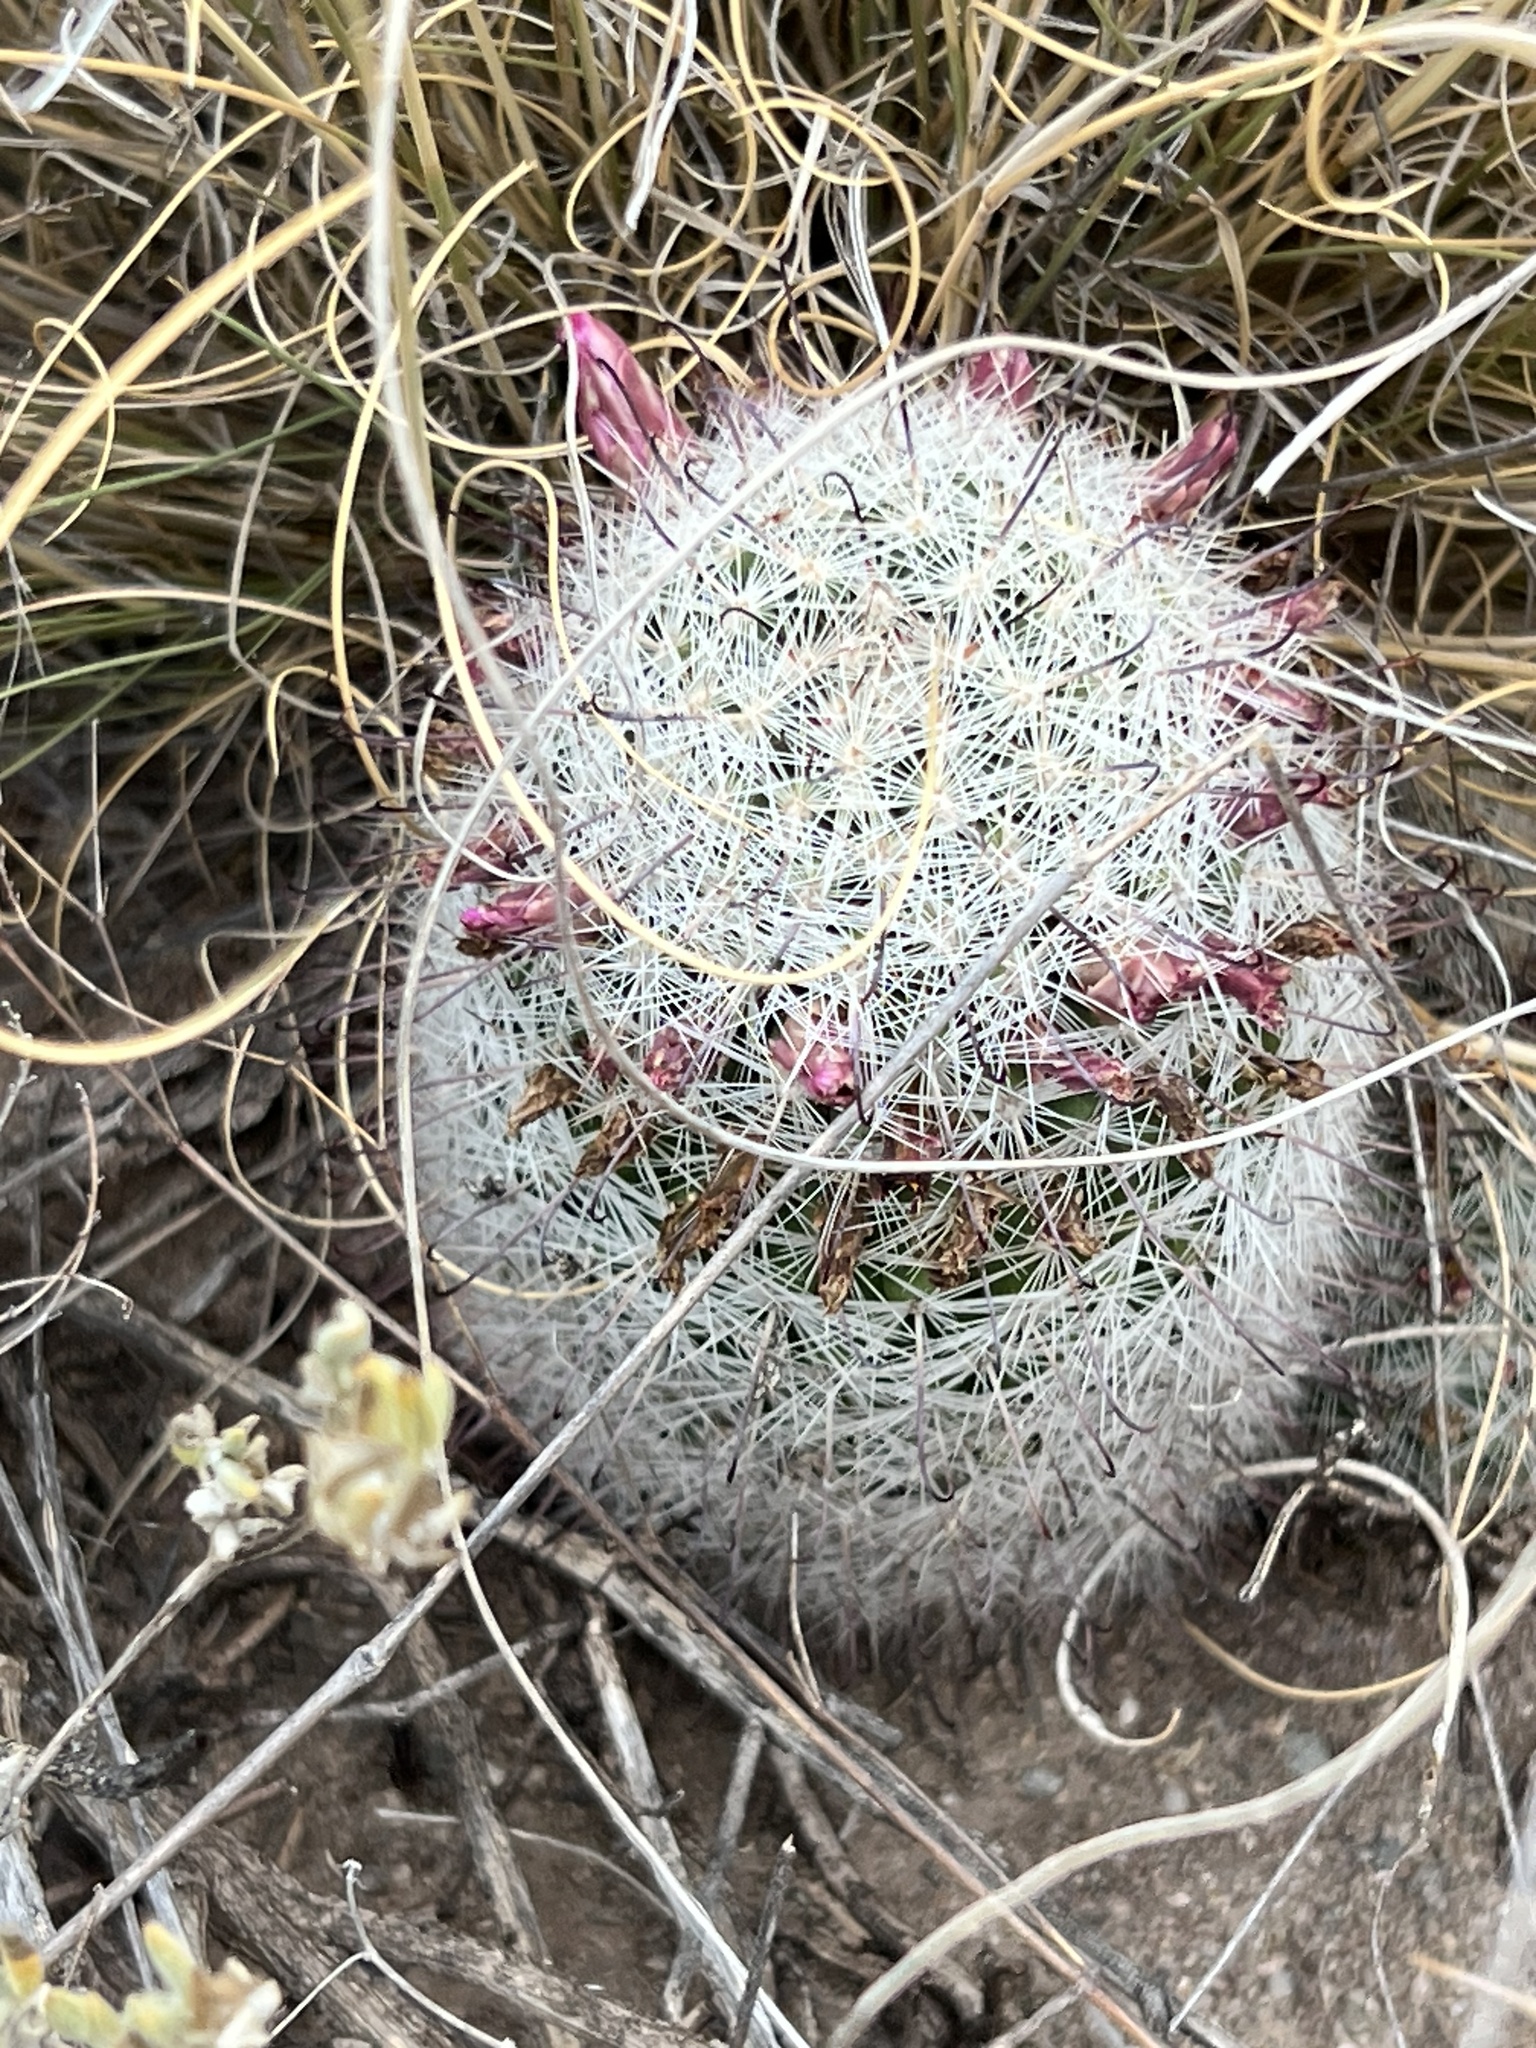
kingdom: Plantae
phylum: Tracheophyta
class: Magnoliopsida
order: Caryophyllales
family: Cactaceae
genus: Cochemiea
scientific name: Cochemiea grahamii
